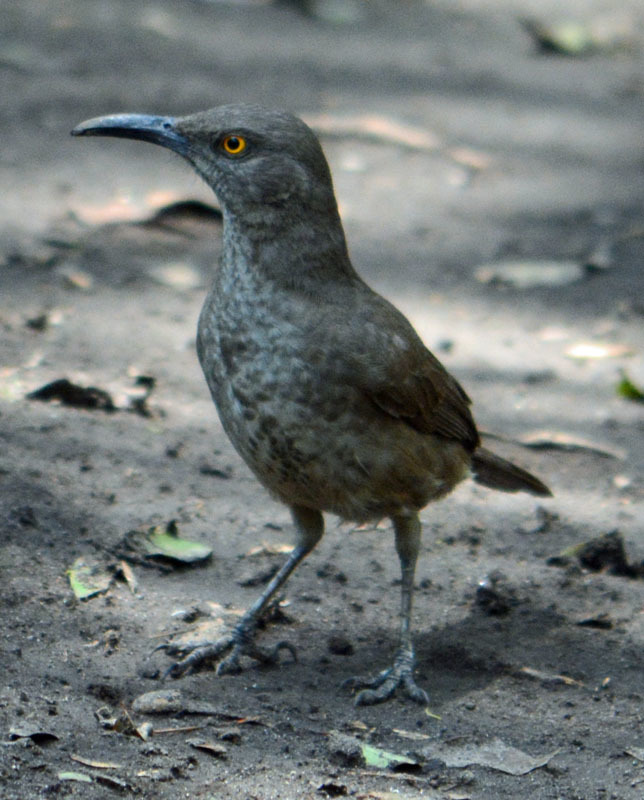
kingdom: Animalia
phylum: Chordata
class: Aves
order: Passeriformes
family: Mimidae
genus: Toxostoma
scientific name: Toxostoma curvirostre
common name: Curve-billed thrasher
